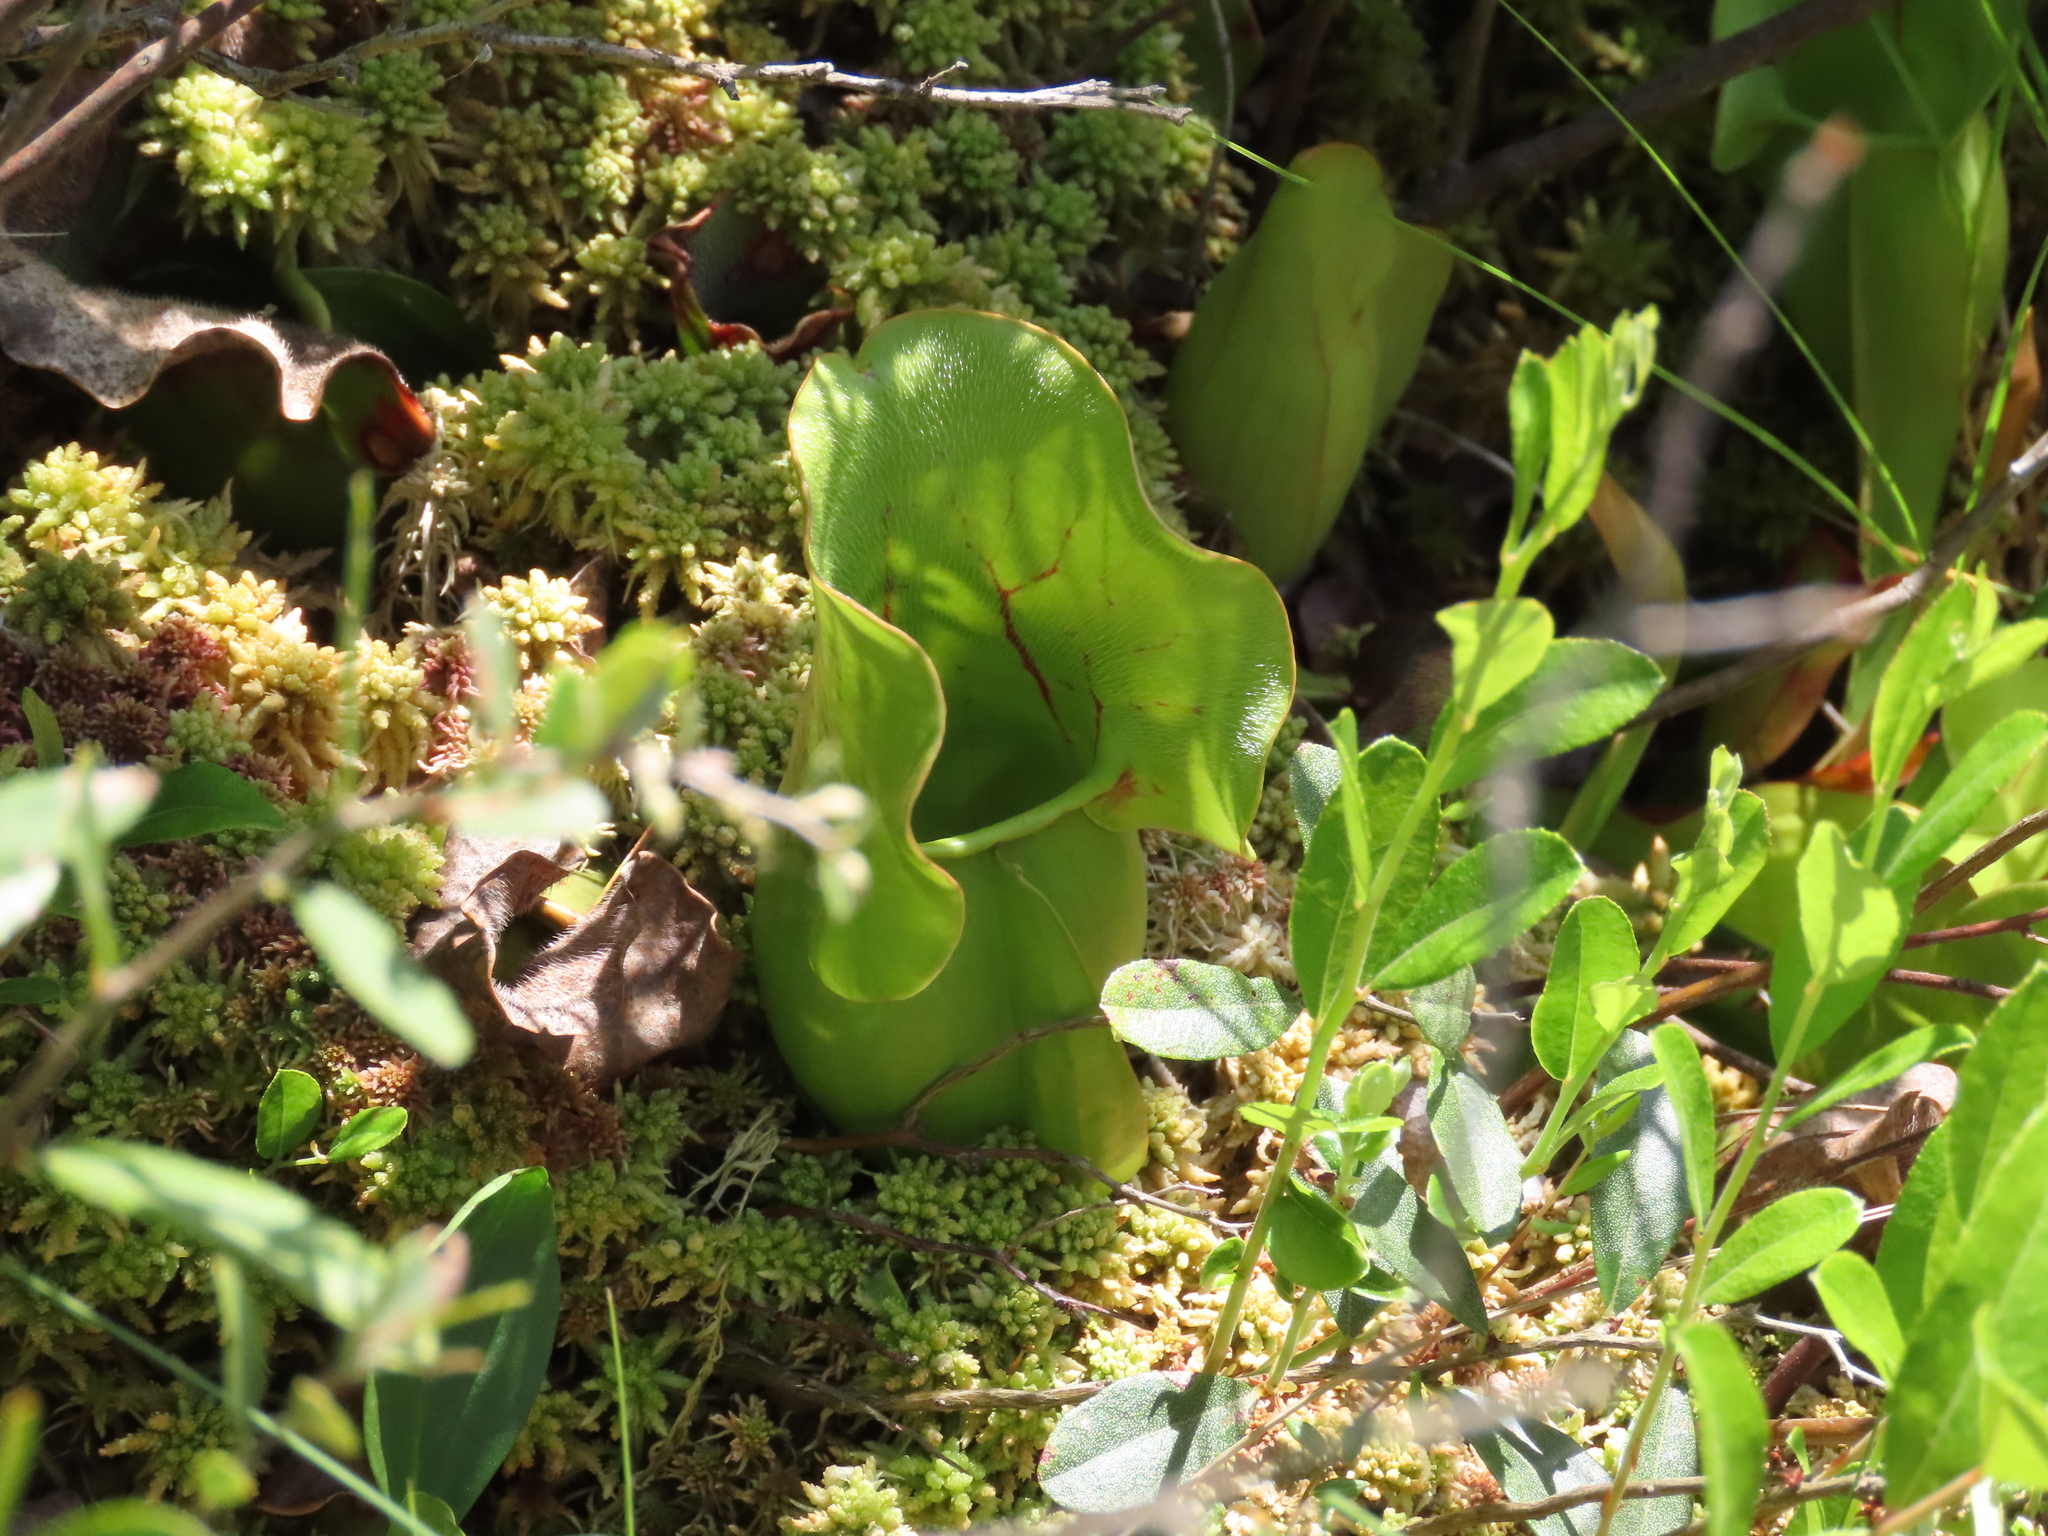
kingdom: Plantae
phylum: Tracheophyta
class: Magnoliopsida
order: Ericales
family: Sarraceniaceae
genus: Sarracenia
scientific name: Sarracenia purpurea
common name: Pitcherplant
